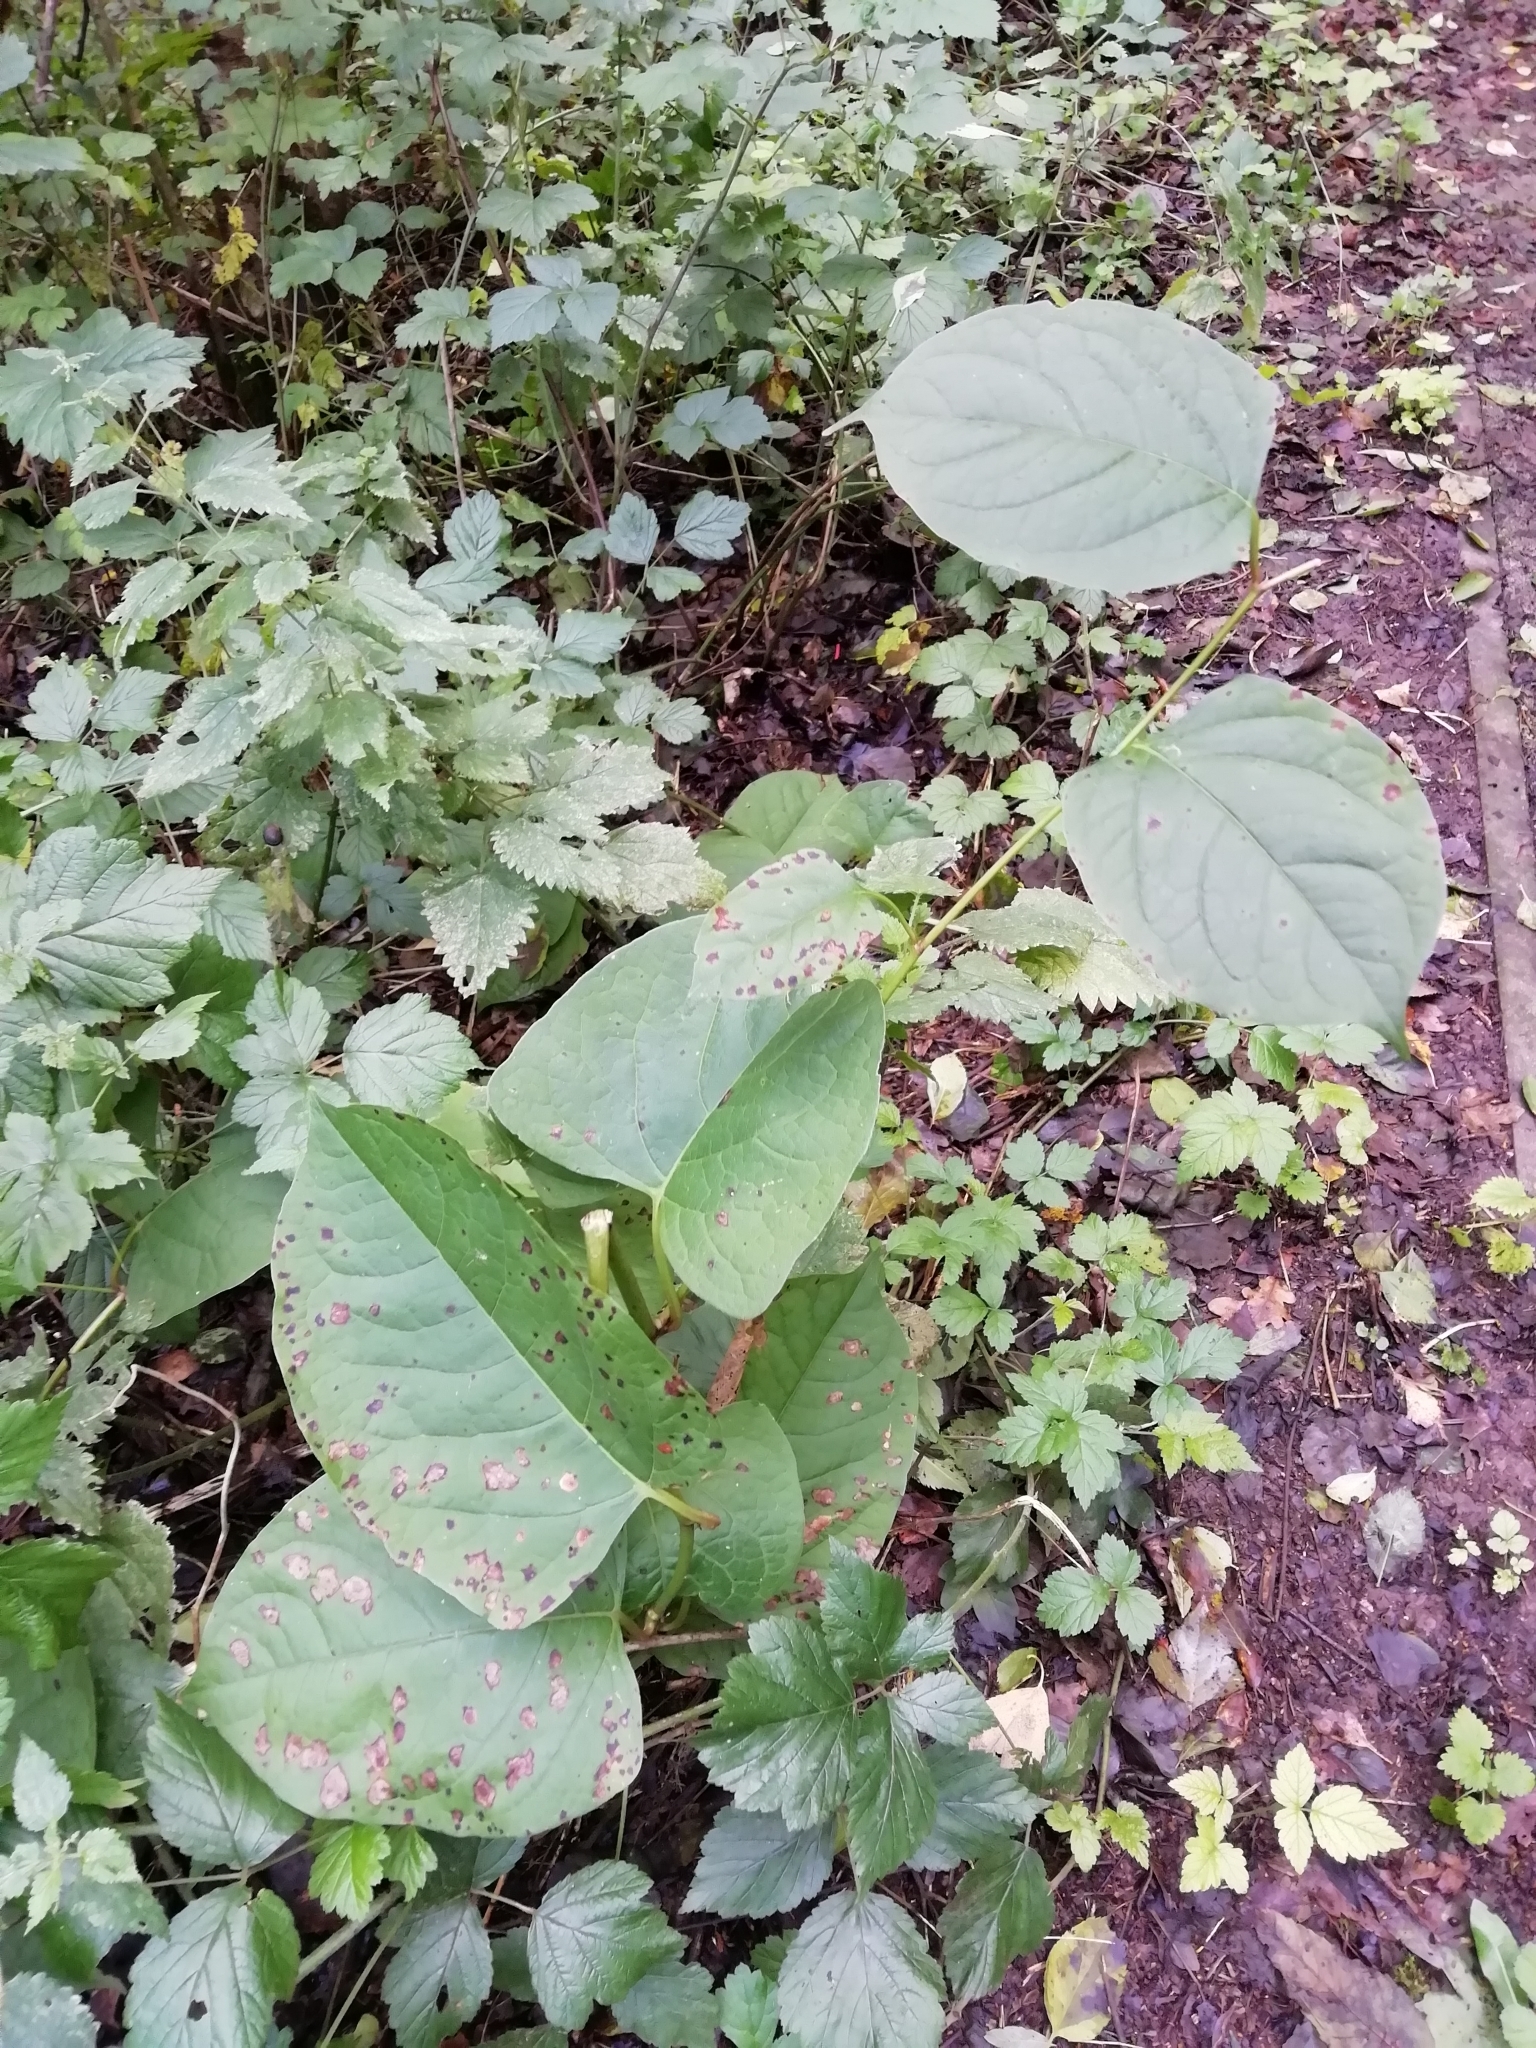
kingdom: Plantae
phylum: Tracheophyta
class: Magnoliopsida
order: Caryophyllales
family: Polygonaceae
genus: Reynoutria
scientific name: Reynoutria japonica
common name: Japanese knotweed
